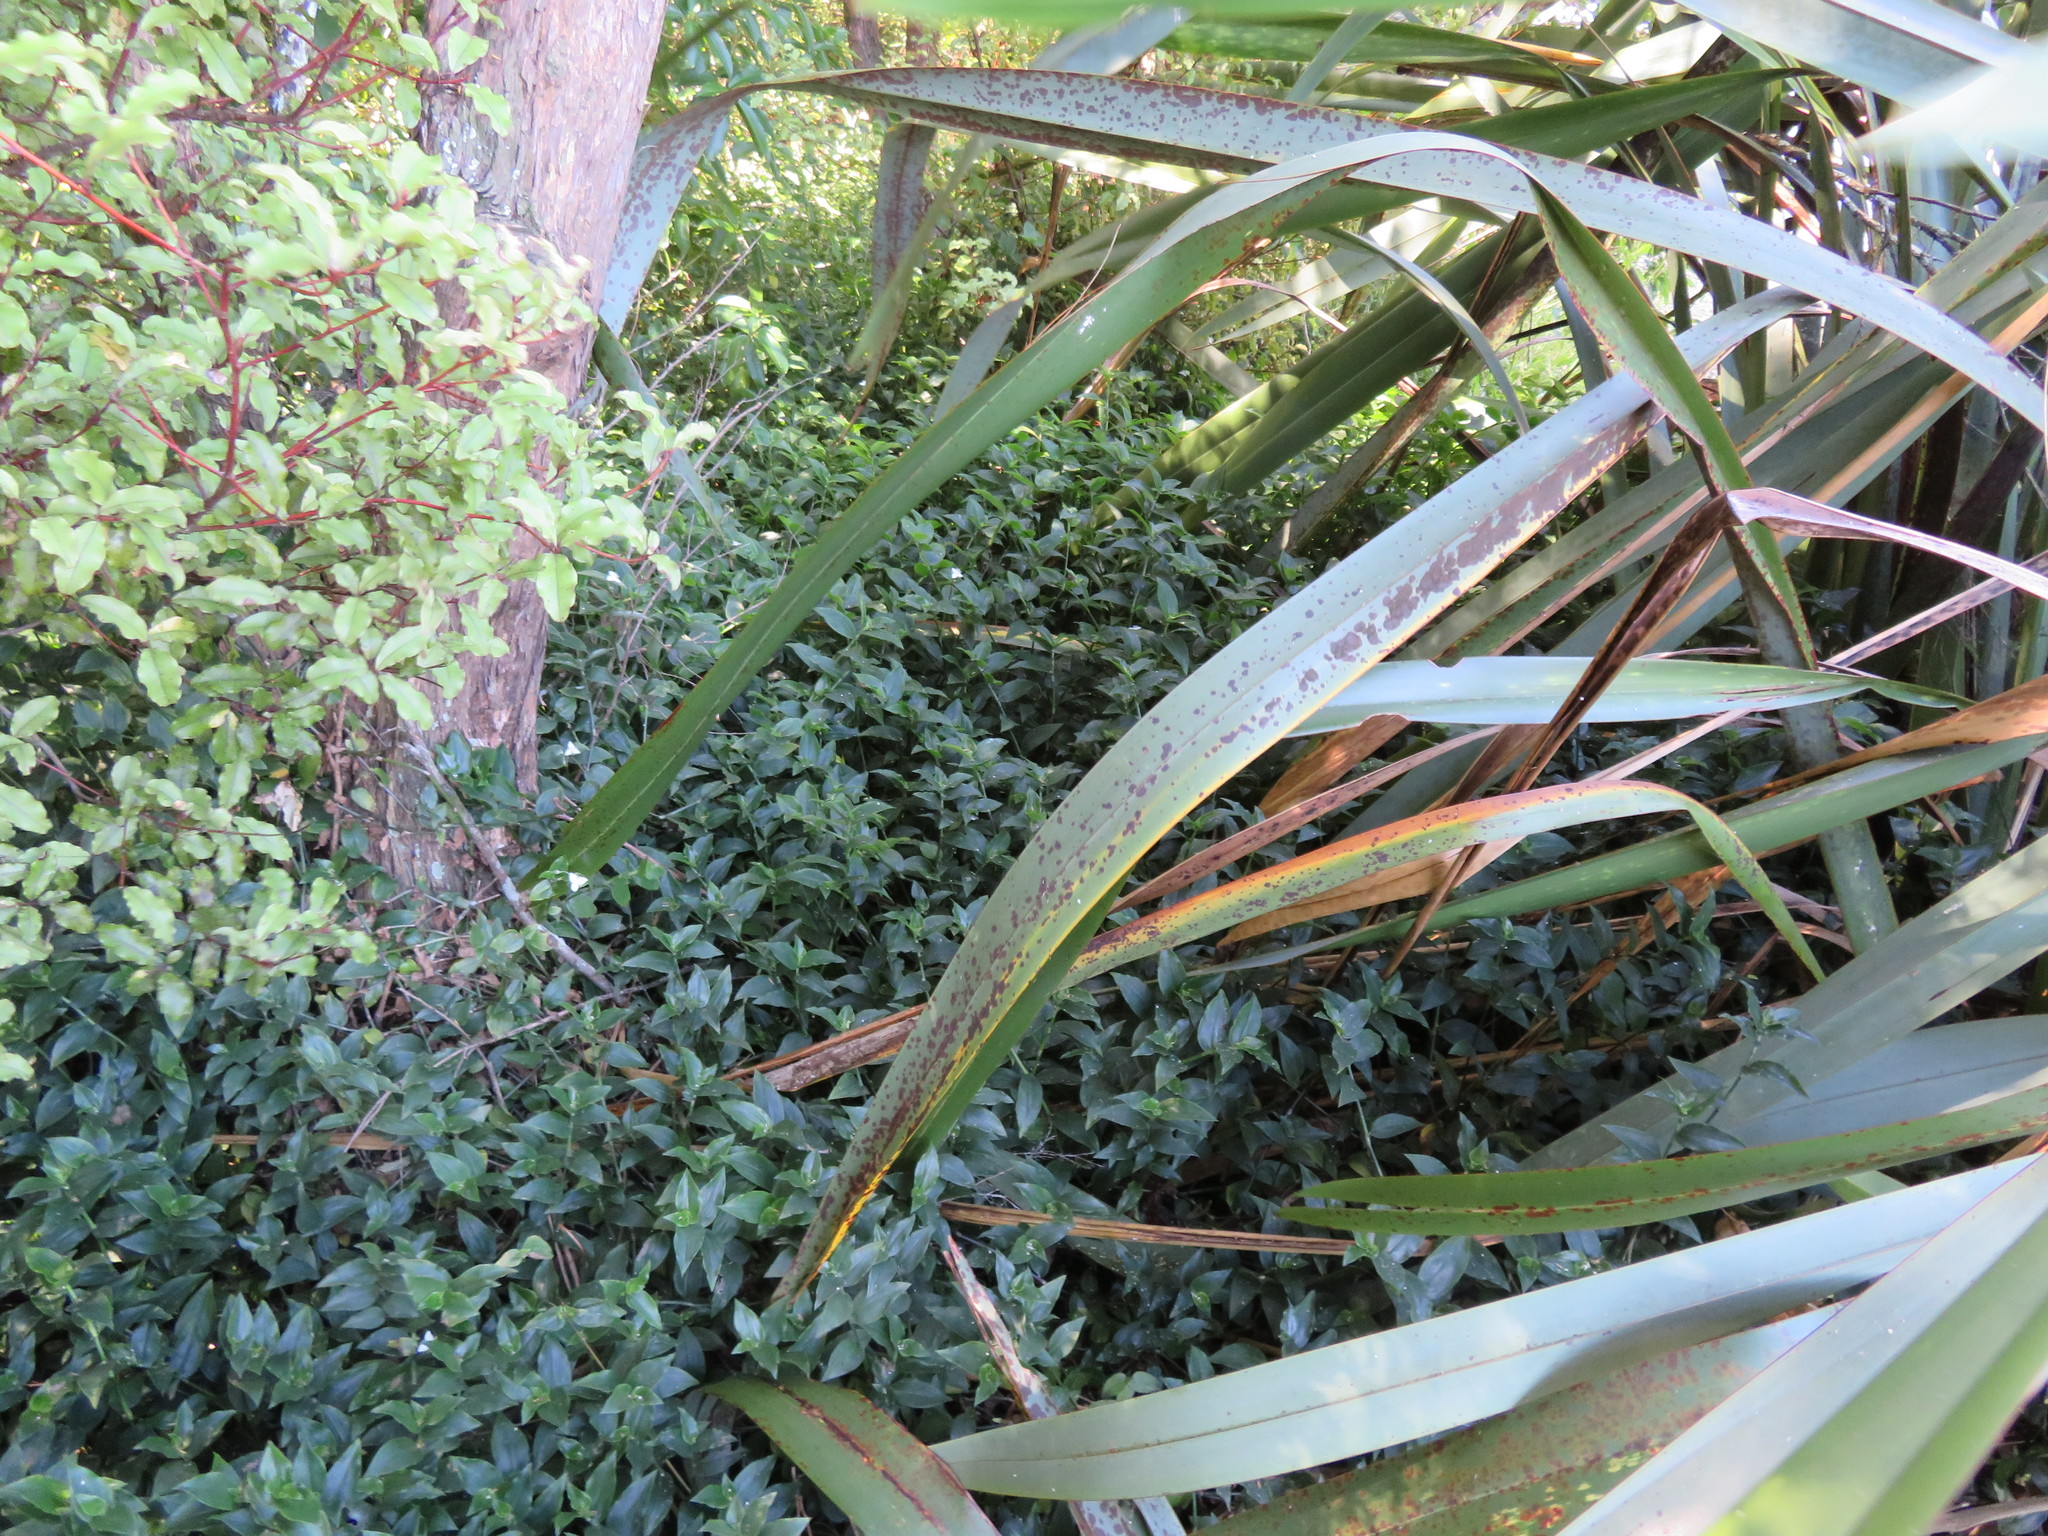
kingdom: Plantae
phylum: Tracheophyta
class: Liliopsida
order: Commelinales
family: Commelinaceae
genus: Tradescantia
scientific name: Tradescantia fluminensis
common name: Wandering-jew
